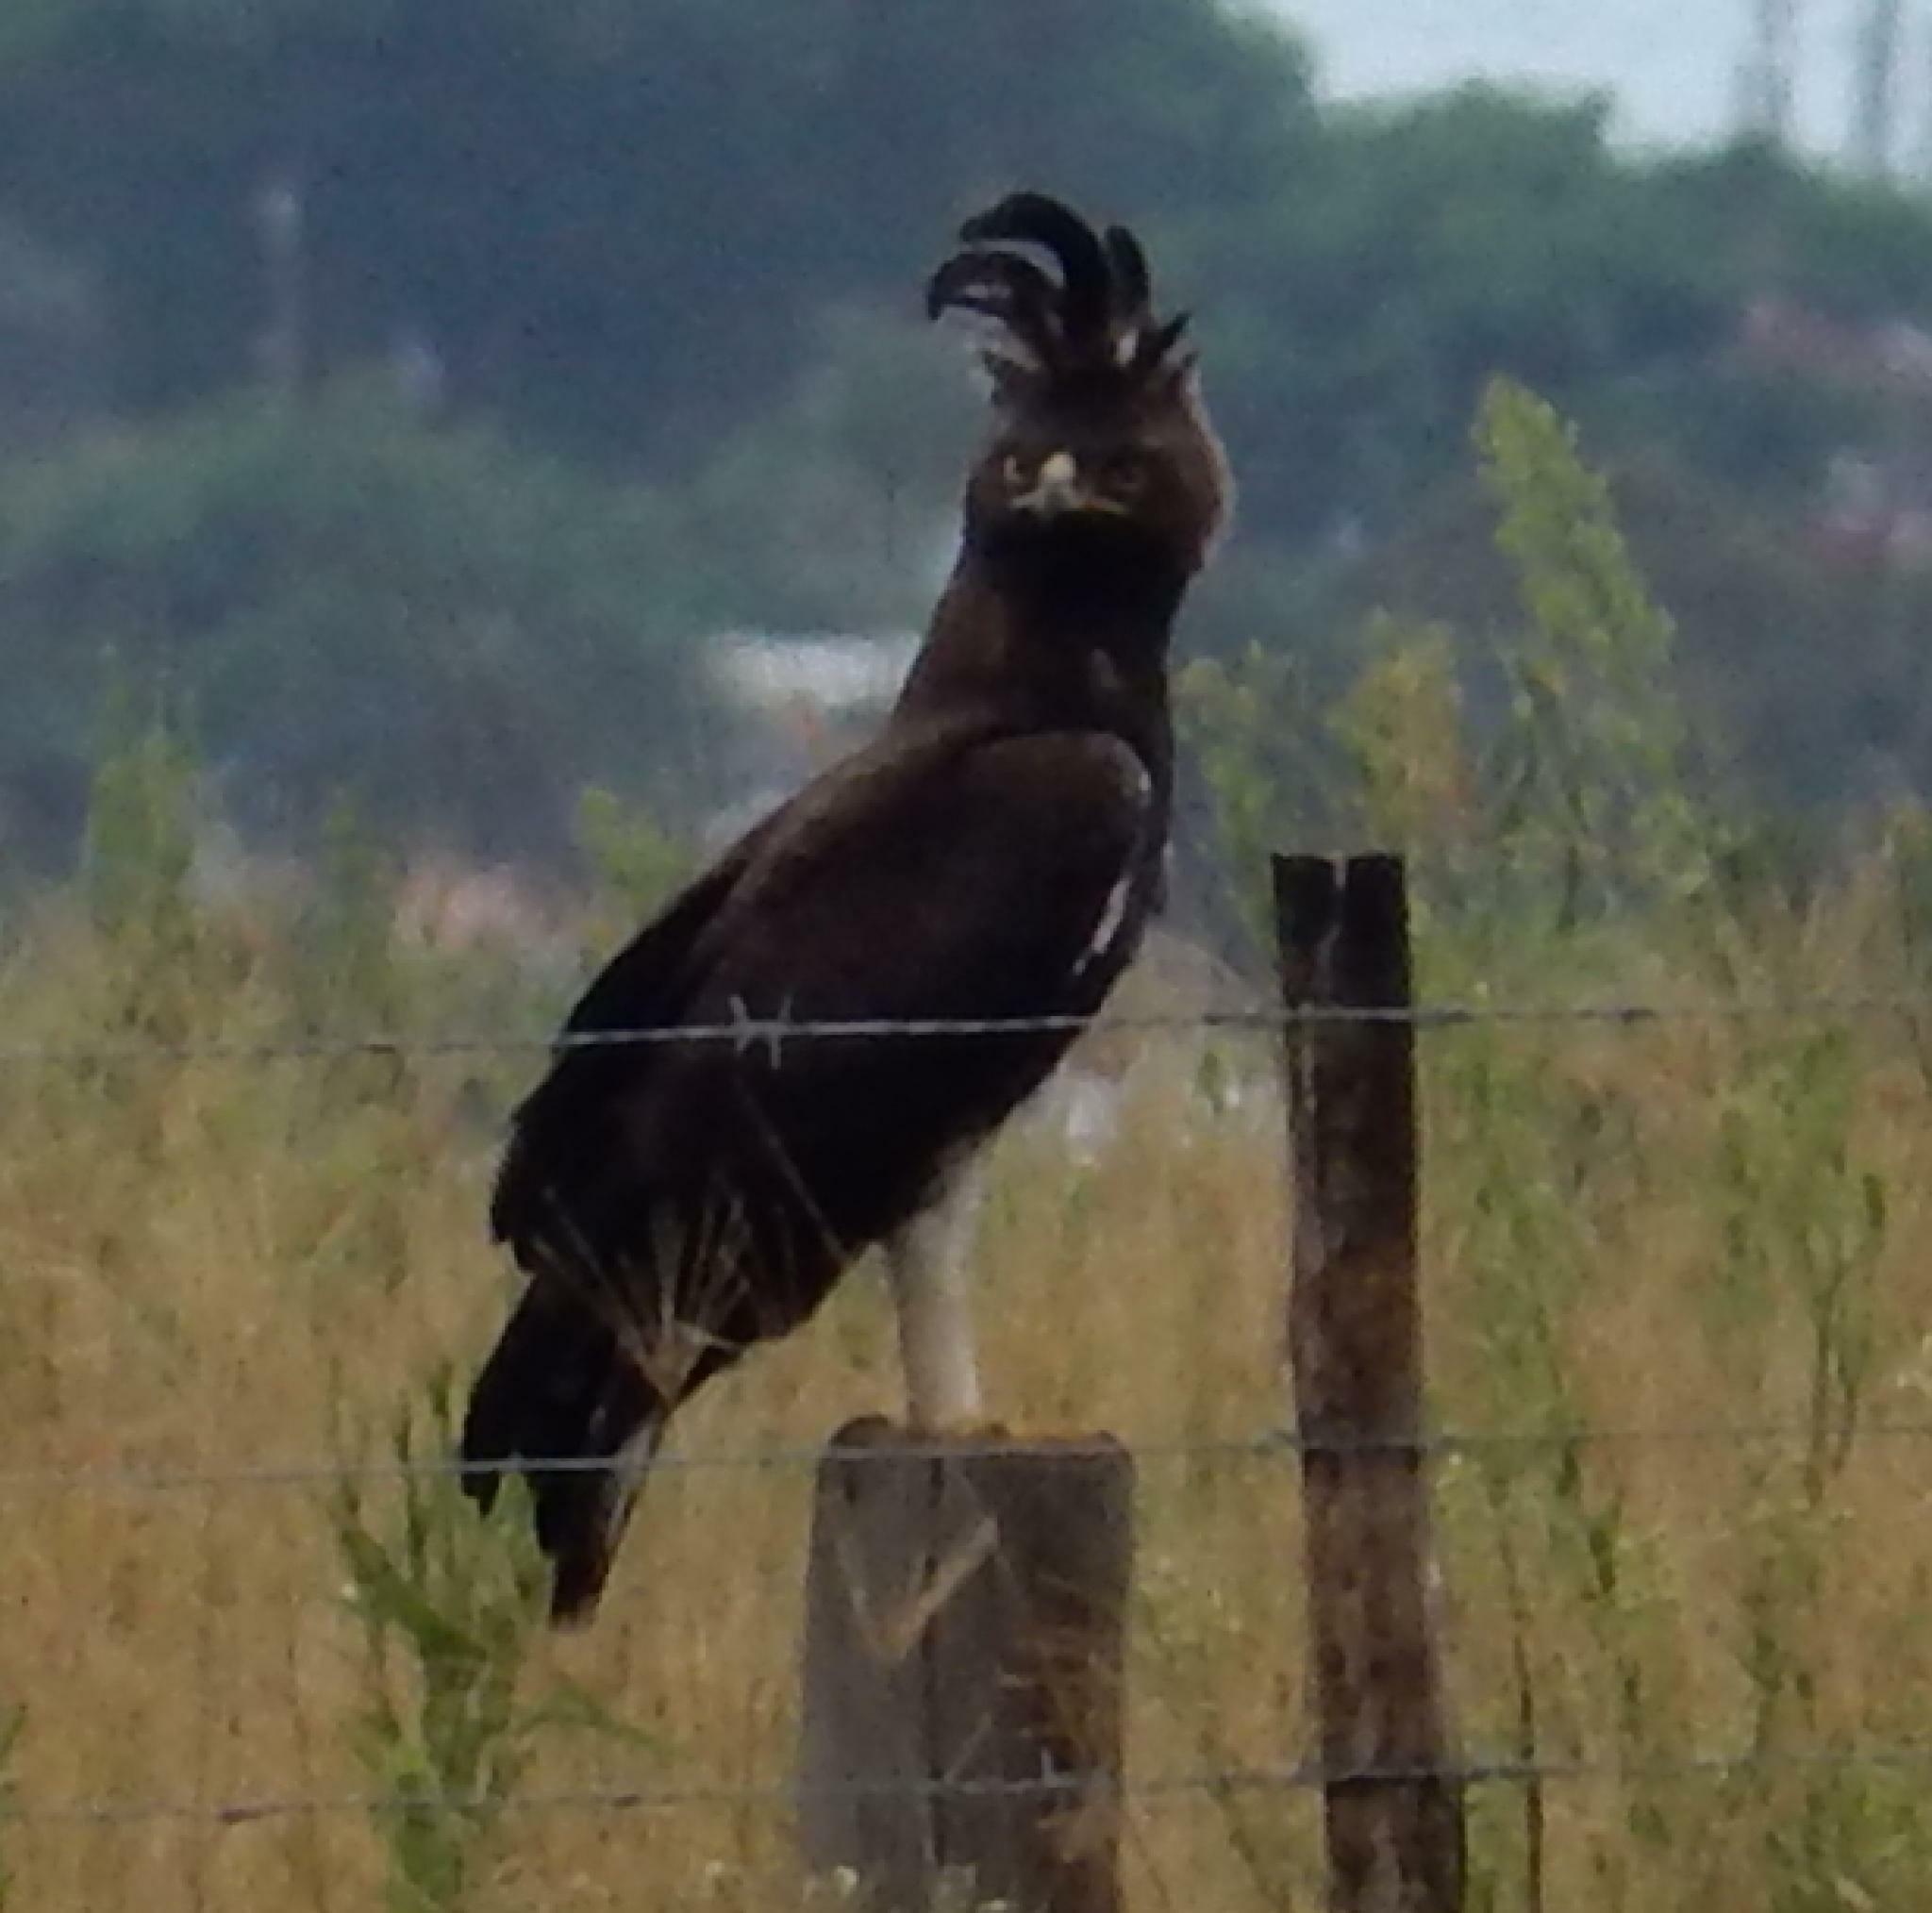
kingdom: Animalia
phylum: Chordata
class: Aves
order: Accipitriformes
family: Accipitridae
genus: Lophaetus
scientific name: Lophaetus occipitalis
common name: Long-crested eagle
